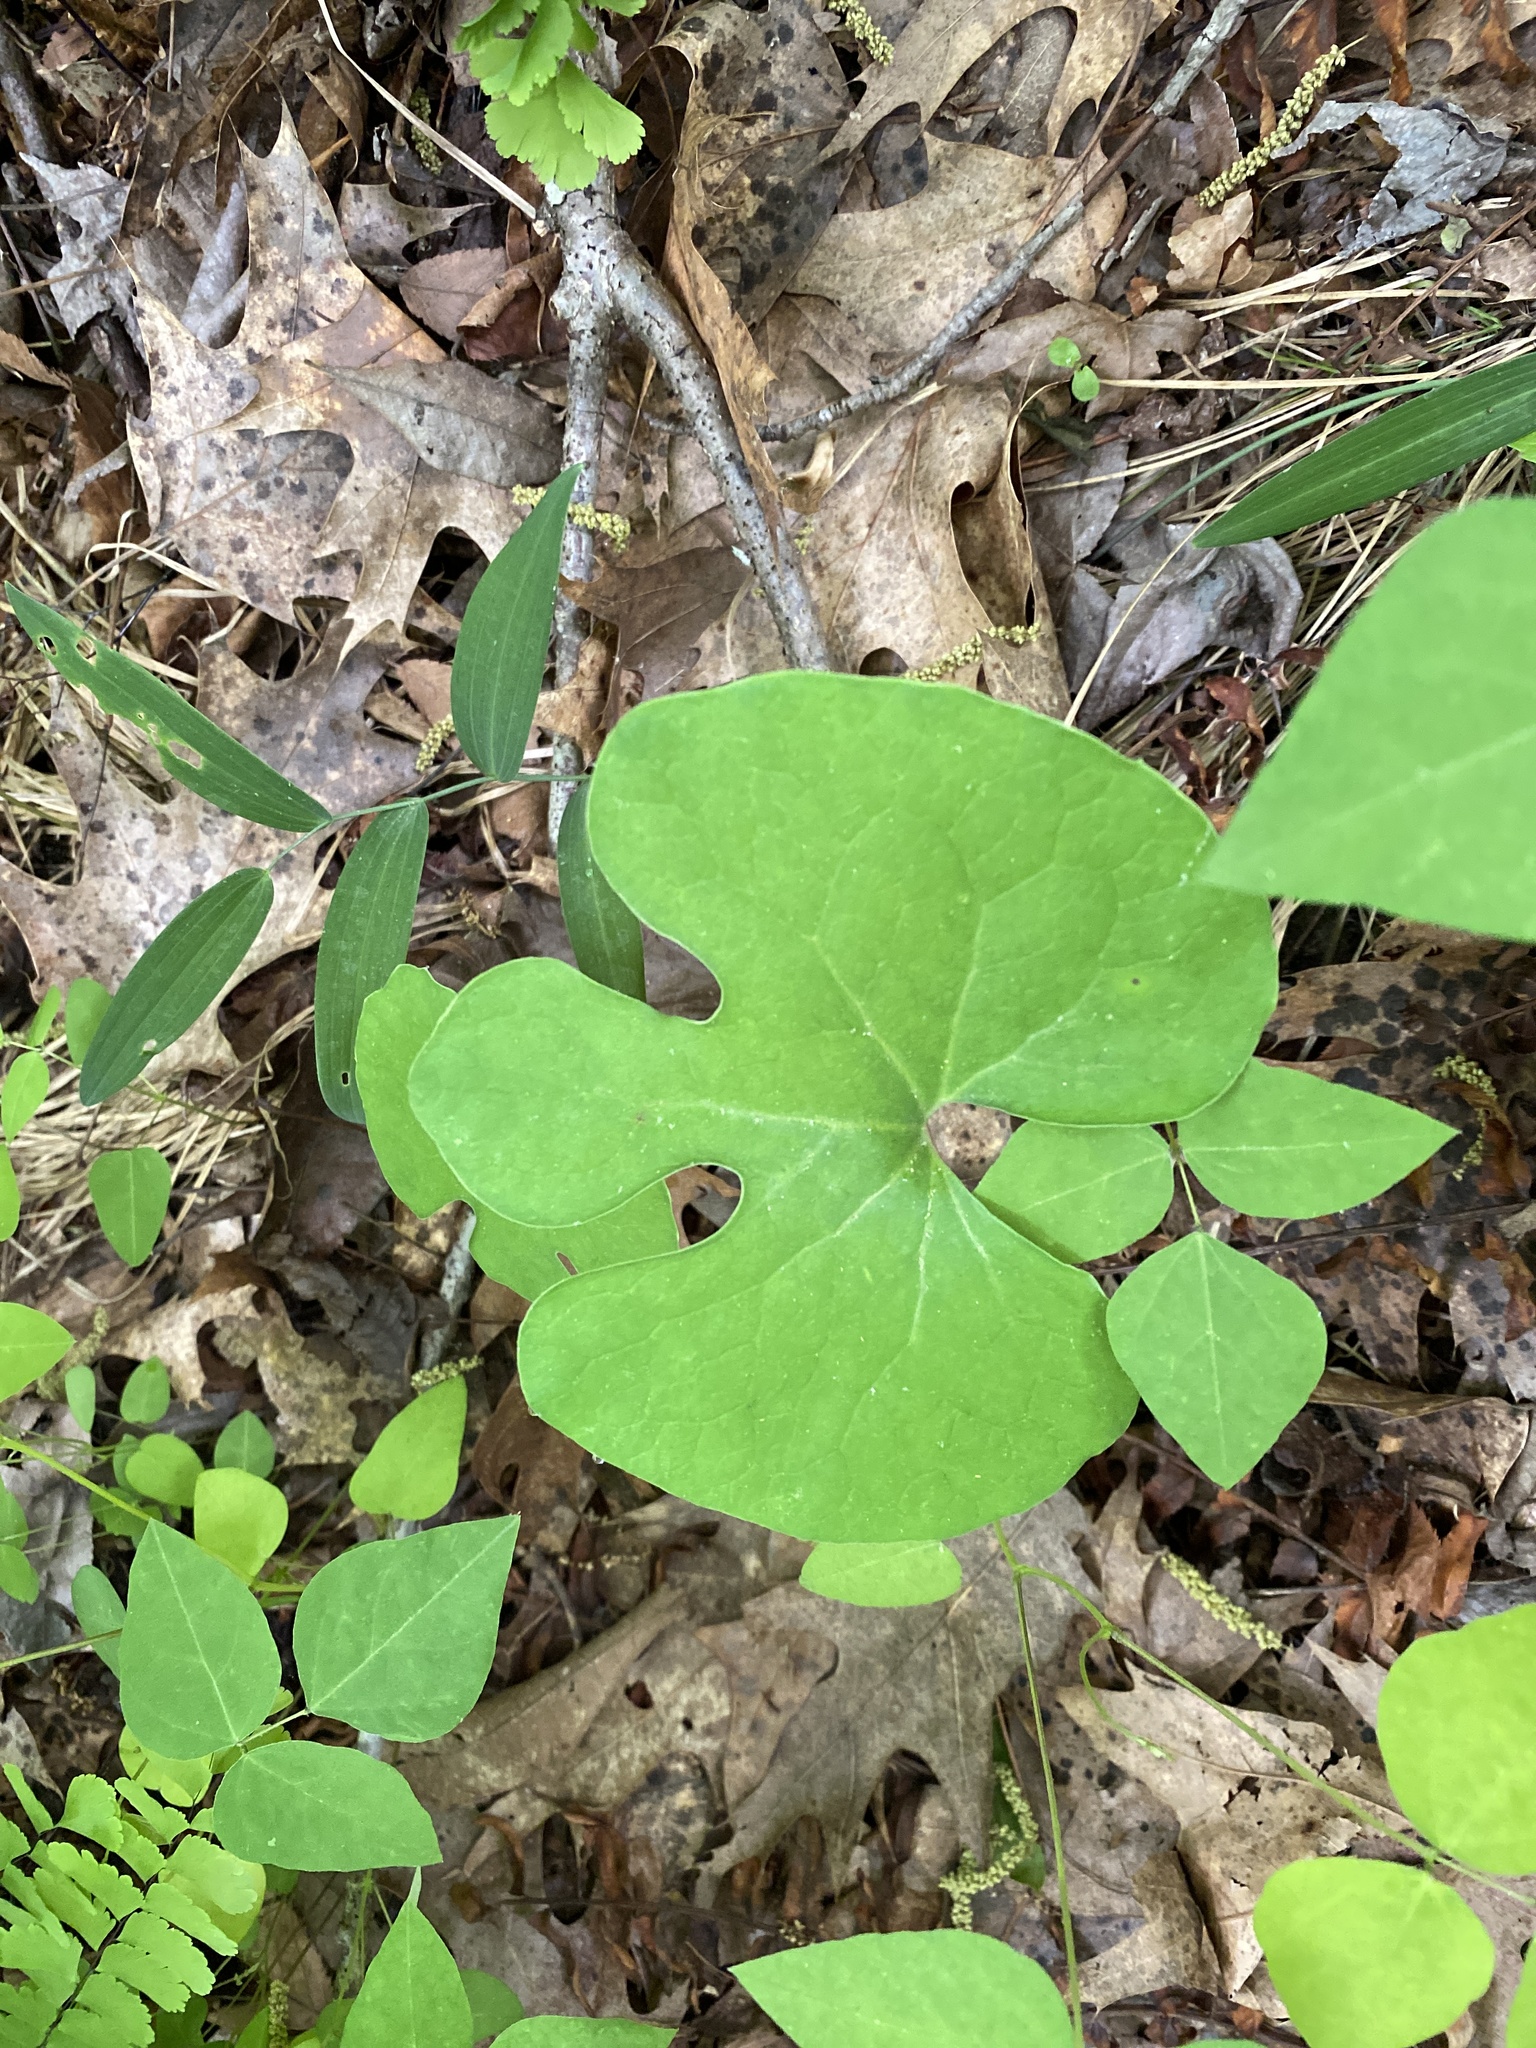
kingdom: Plantae
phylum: Tracheophyta
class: Magnoliopsida
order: Ranunculales
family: Papaveraceae
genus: Sanguinaria
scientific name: Sanguinaria canadensis
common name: Bloodroot
